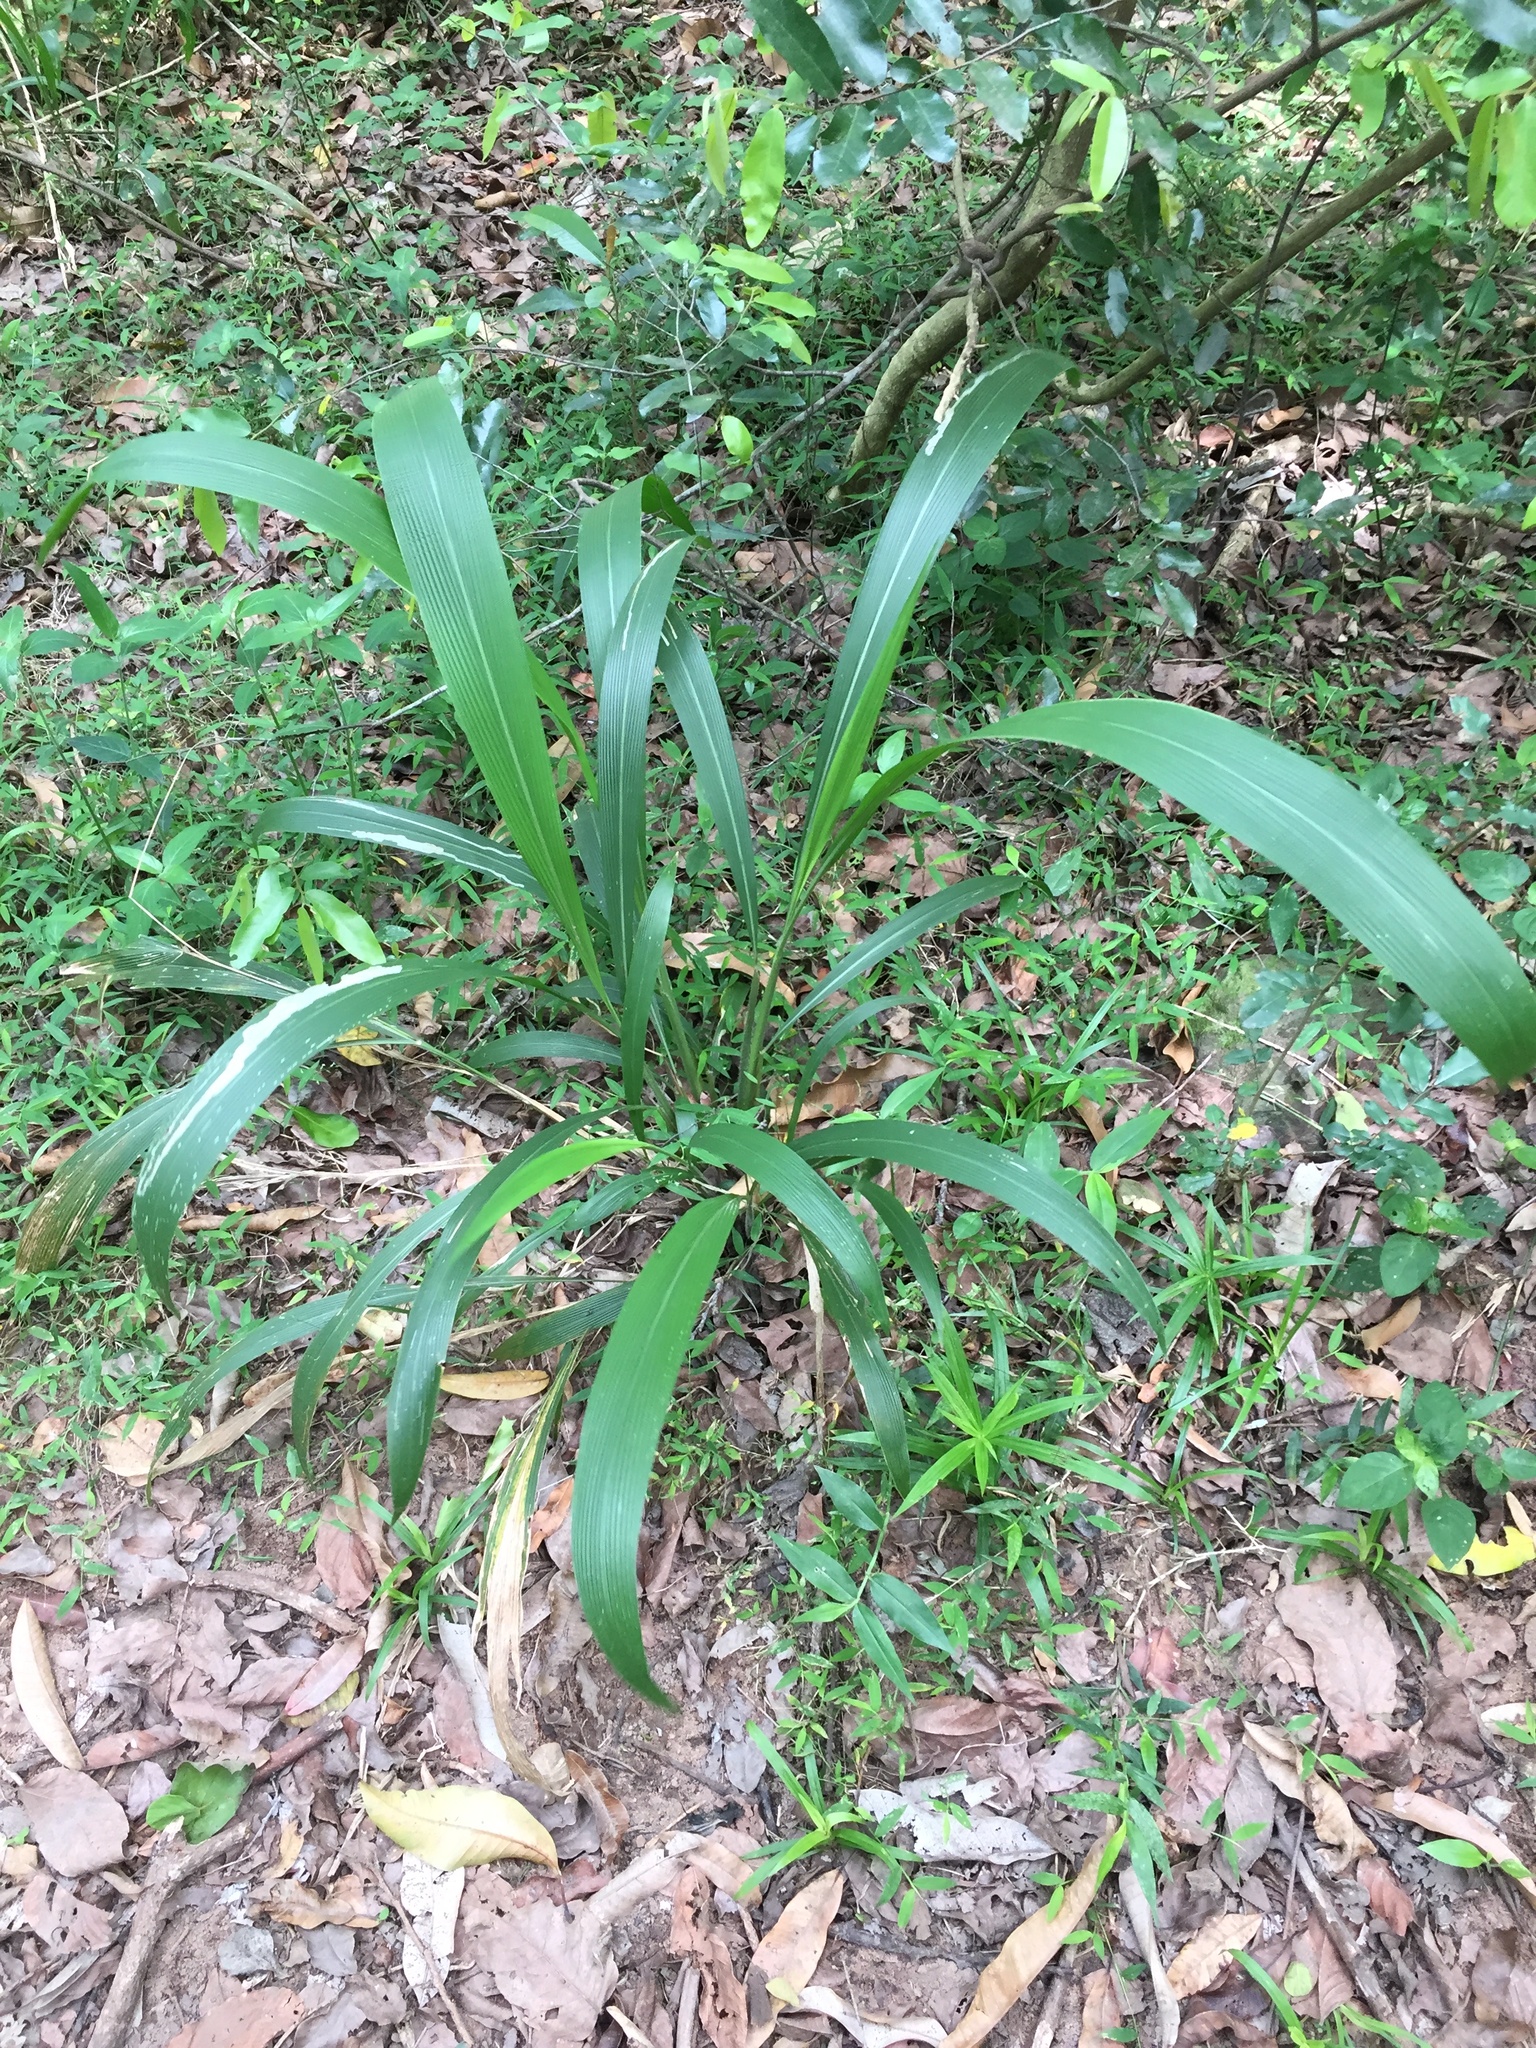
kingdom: Plantae
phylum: Tracheophyta
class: Liliopsida
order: Poales
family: Poaceae
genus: Setaria
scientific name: Setaria megaphylla
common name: Bigleaf bristlegrass
